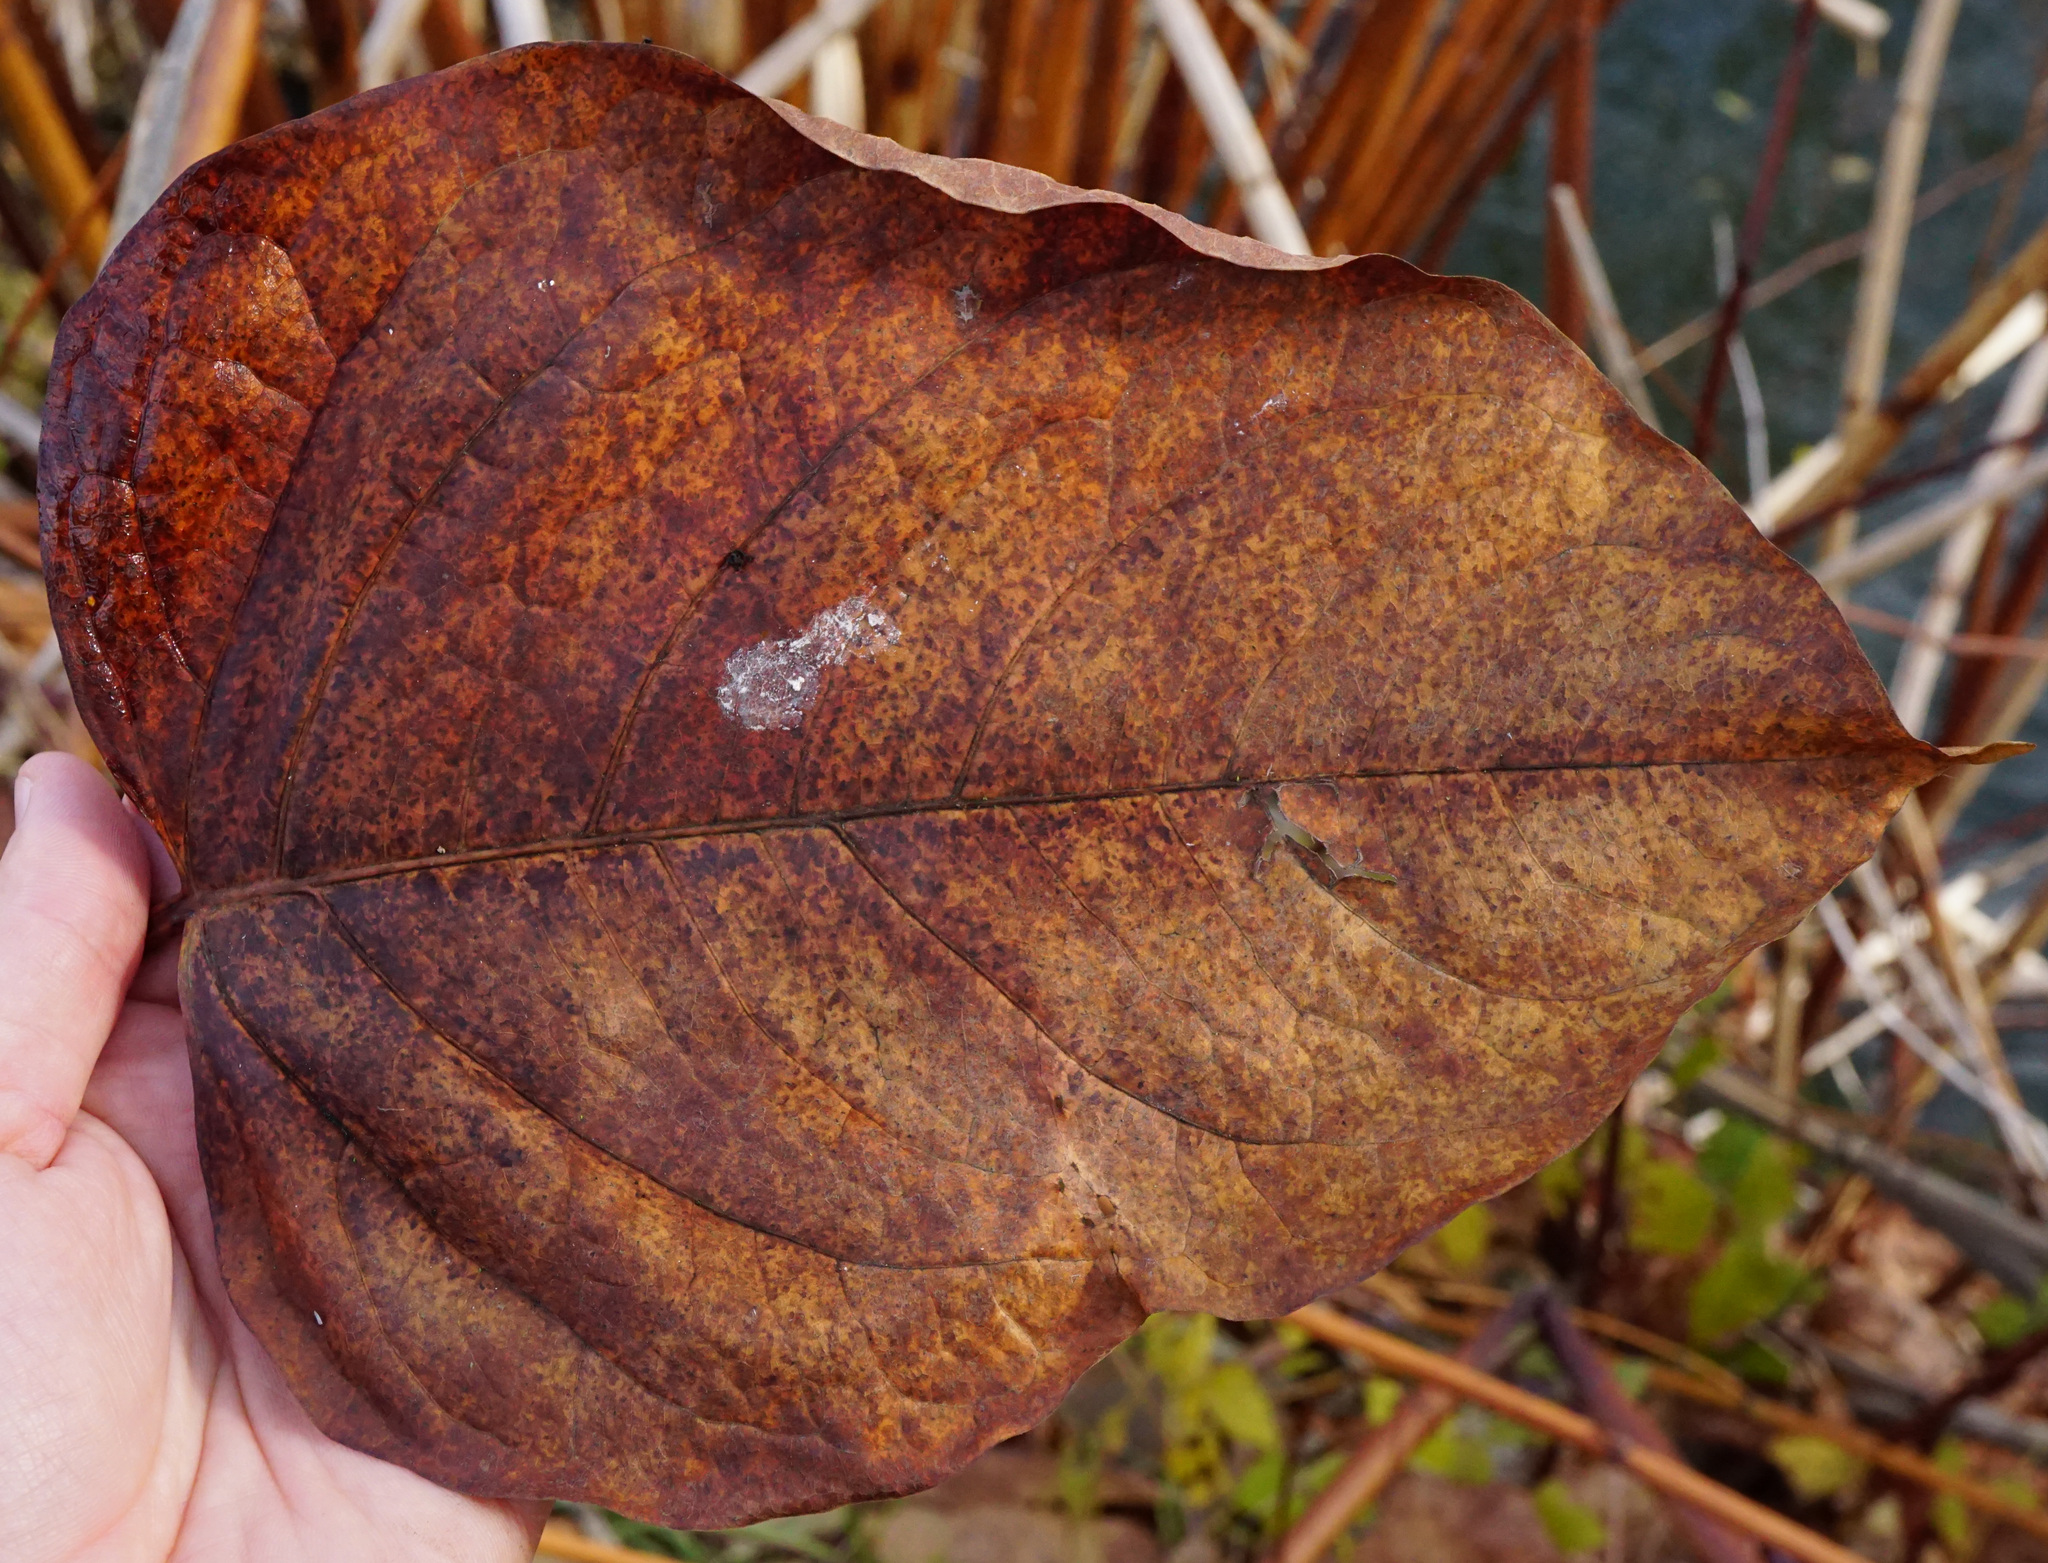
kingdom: Plantae
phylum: Tracheophyta
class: Magnoliopsida
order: Caryophyllales
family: Polygonaceae
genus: Reynoutria
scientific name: Reynoutria bohemica
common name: Bohemian knotweed
